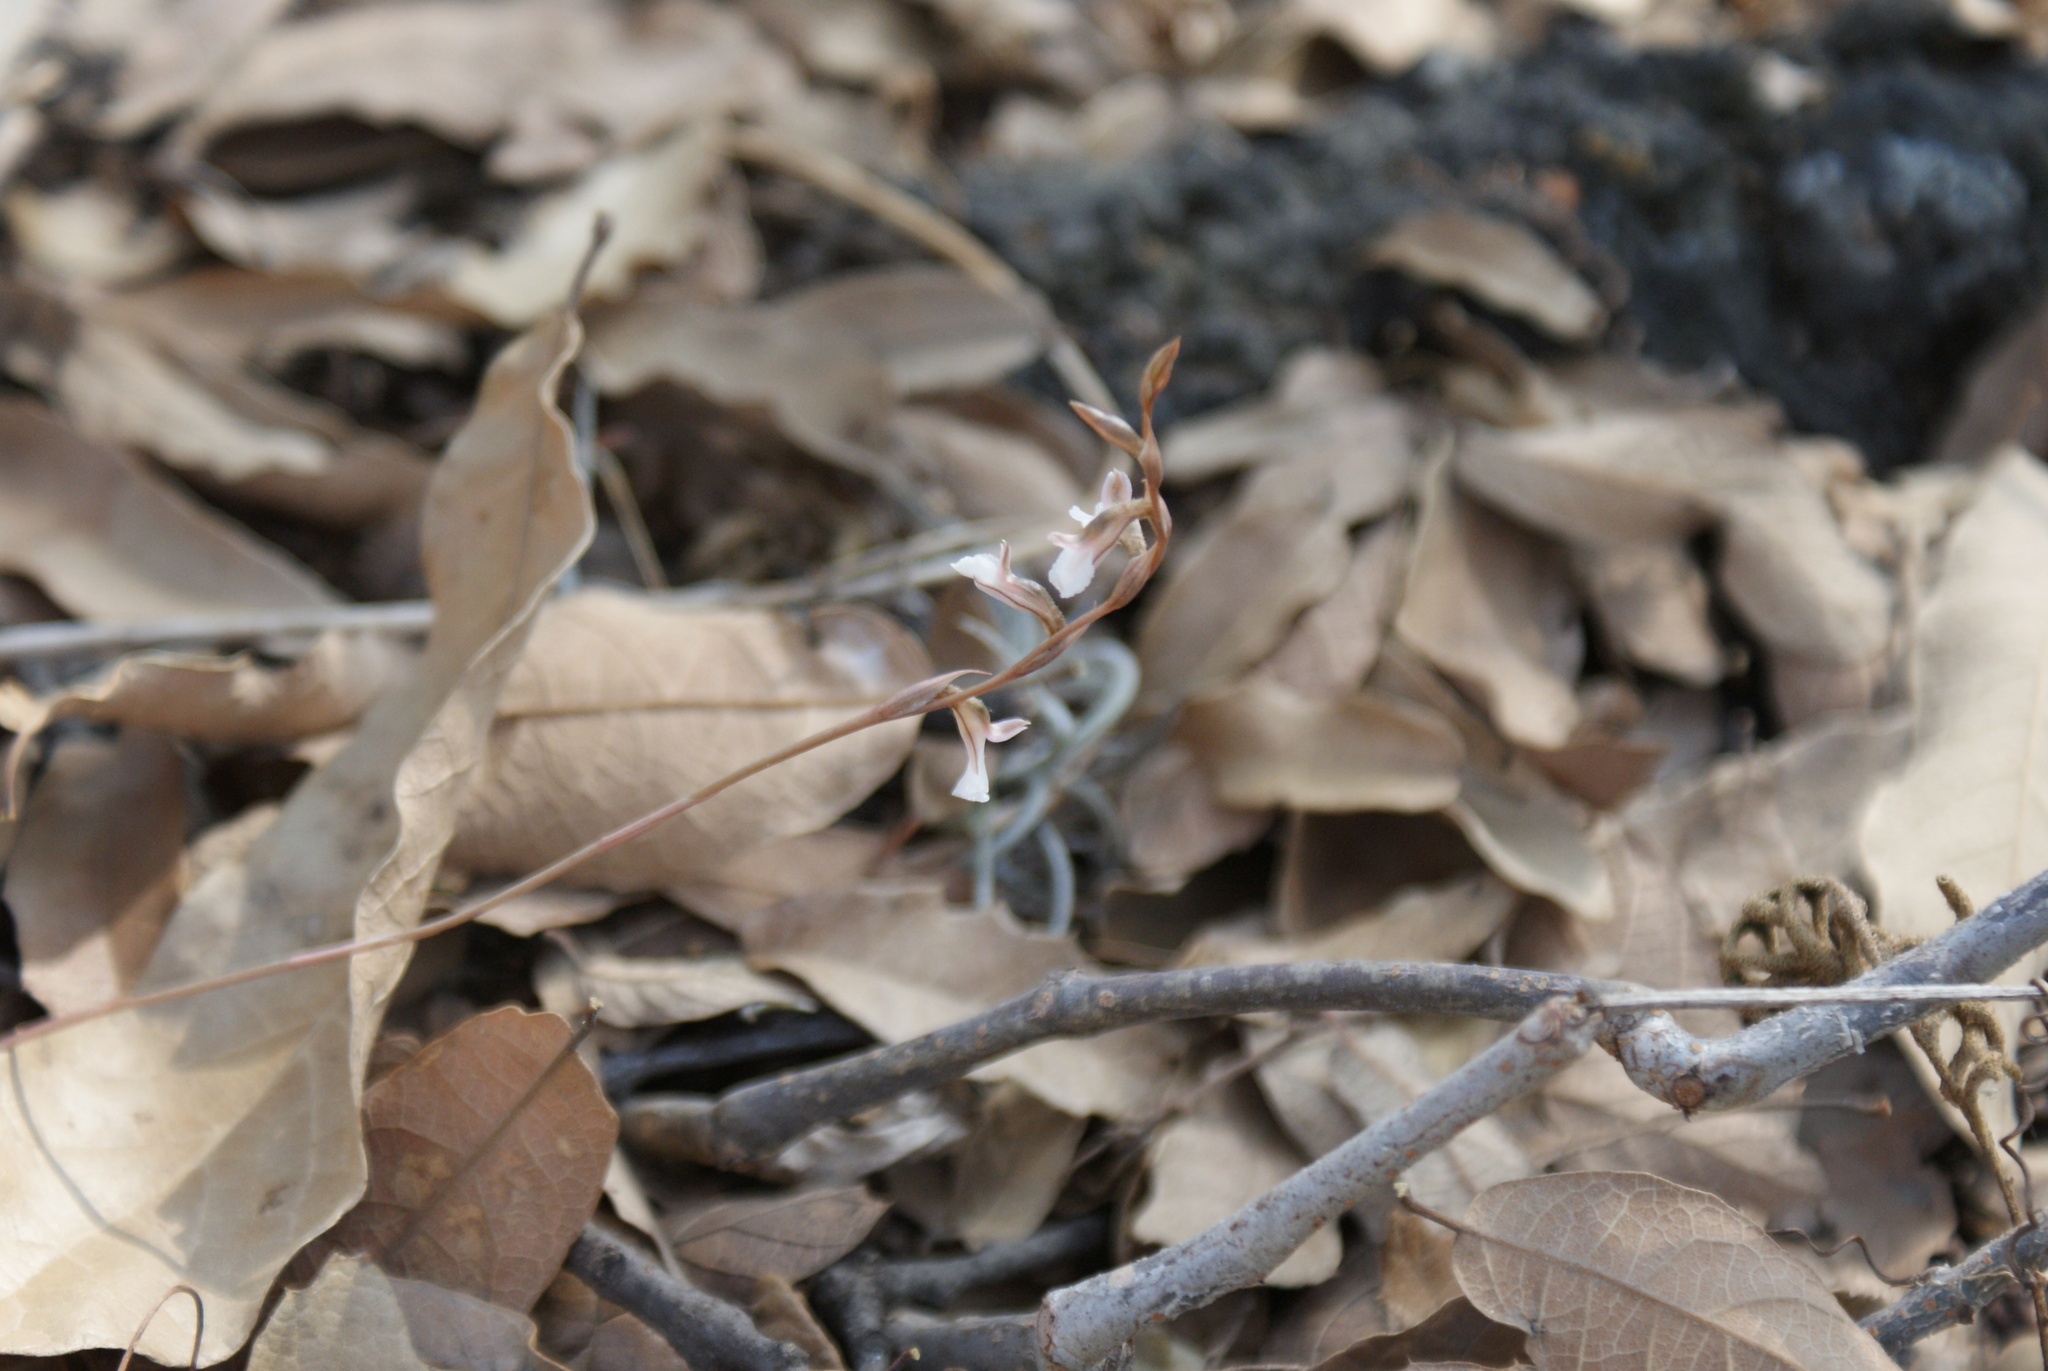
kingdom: Plantae
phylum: Tracheophyta
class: Liliopsida
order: Asparagales
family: Orchidaceae
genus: Greenwoodiella
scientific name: Greenwoodiella micrantha
